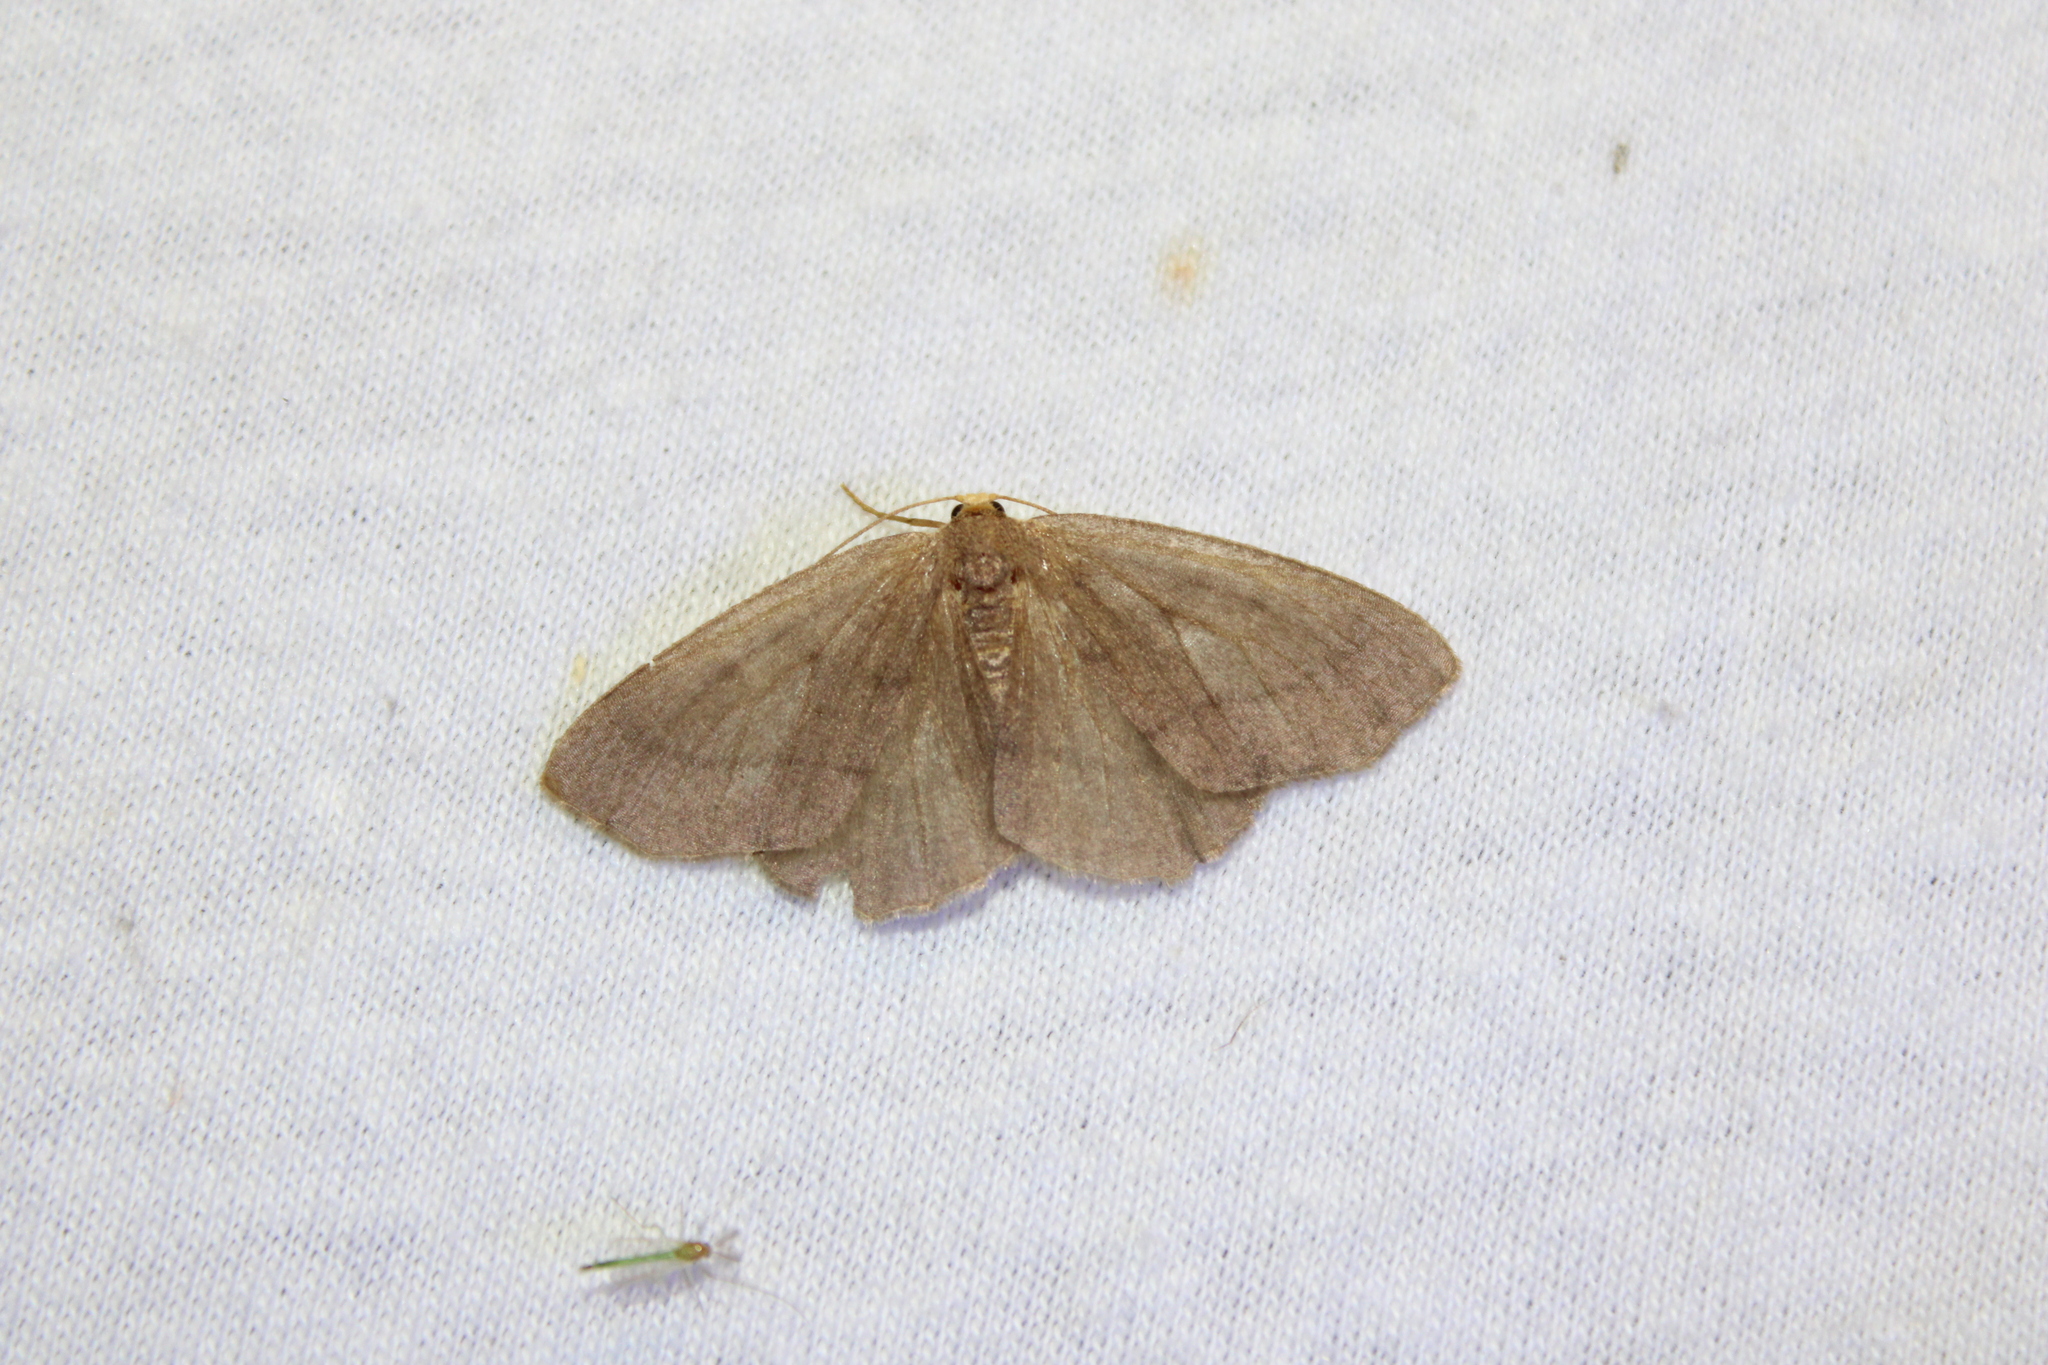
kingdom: Animalia
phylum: Arthropoda
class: Insecta
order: Lepidoptera
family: Geometridae
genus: Lambdina
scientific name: Lambdina pellucidaria
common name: Eastern pinelooper
